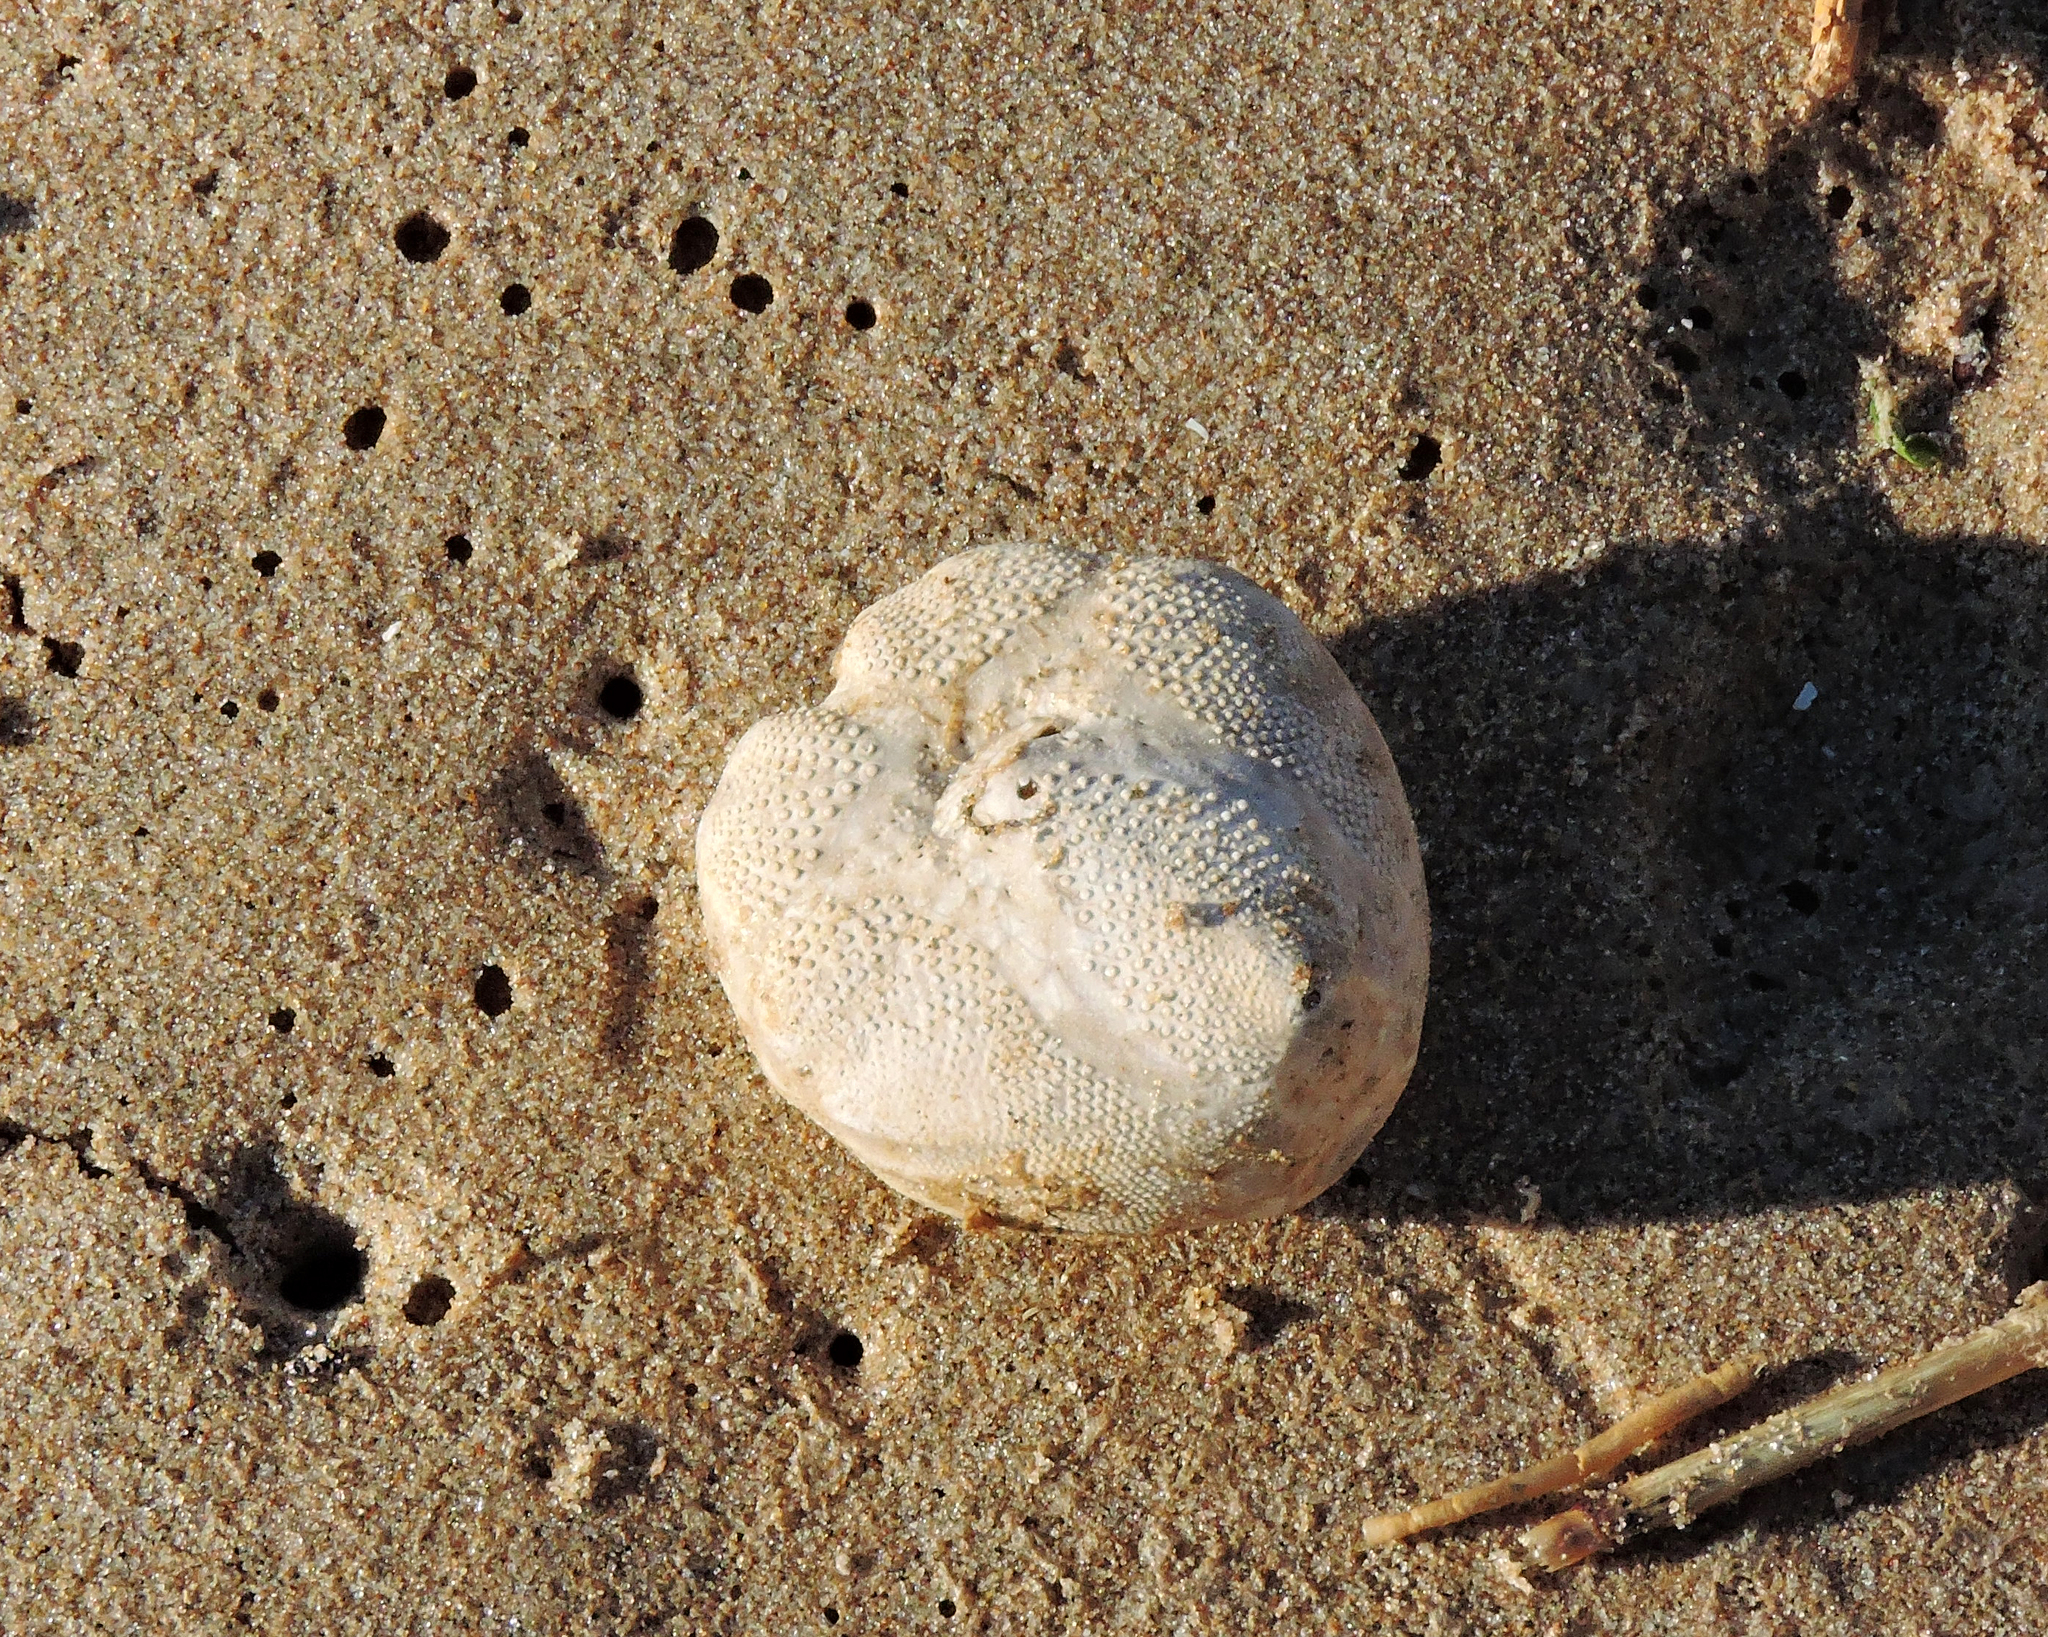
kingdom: Animalia
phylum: Echinodermata
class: Echinoidea
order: Spatangoida
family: Loveniidae
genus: Echinocardium
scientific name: Echinocardium cordatum
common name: Heart-urchin
